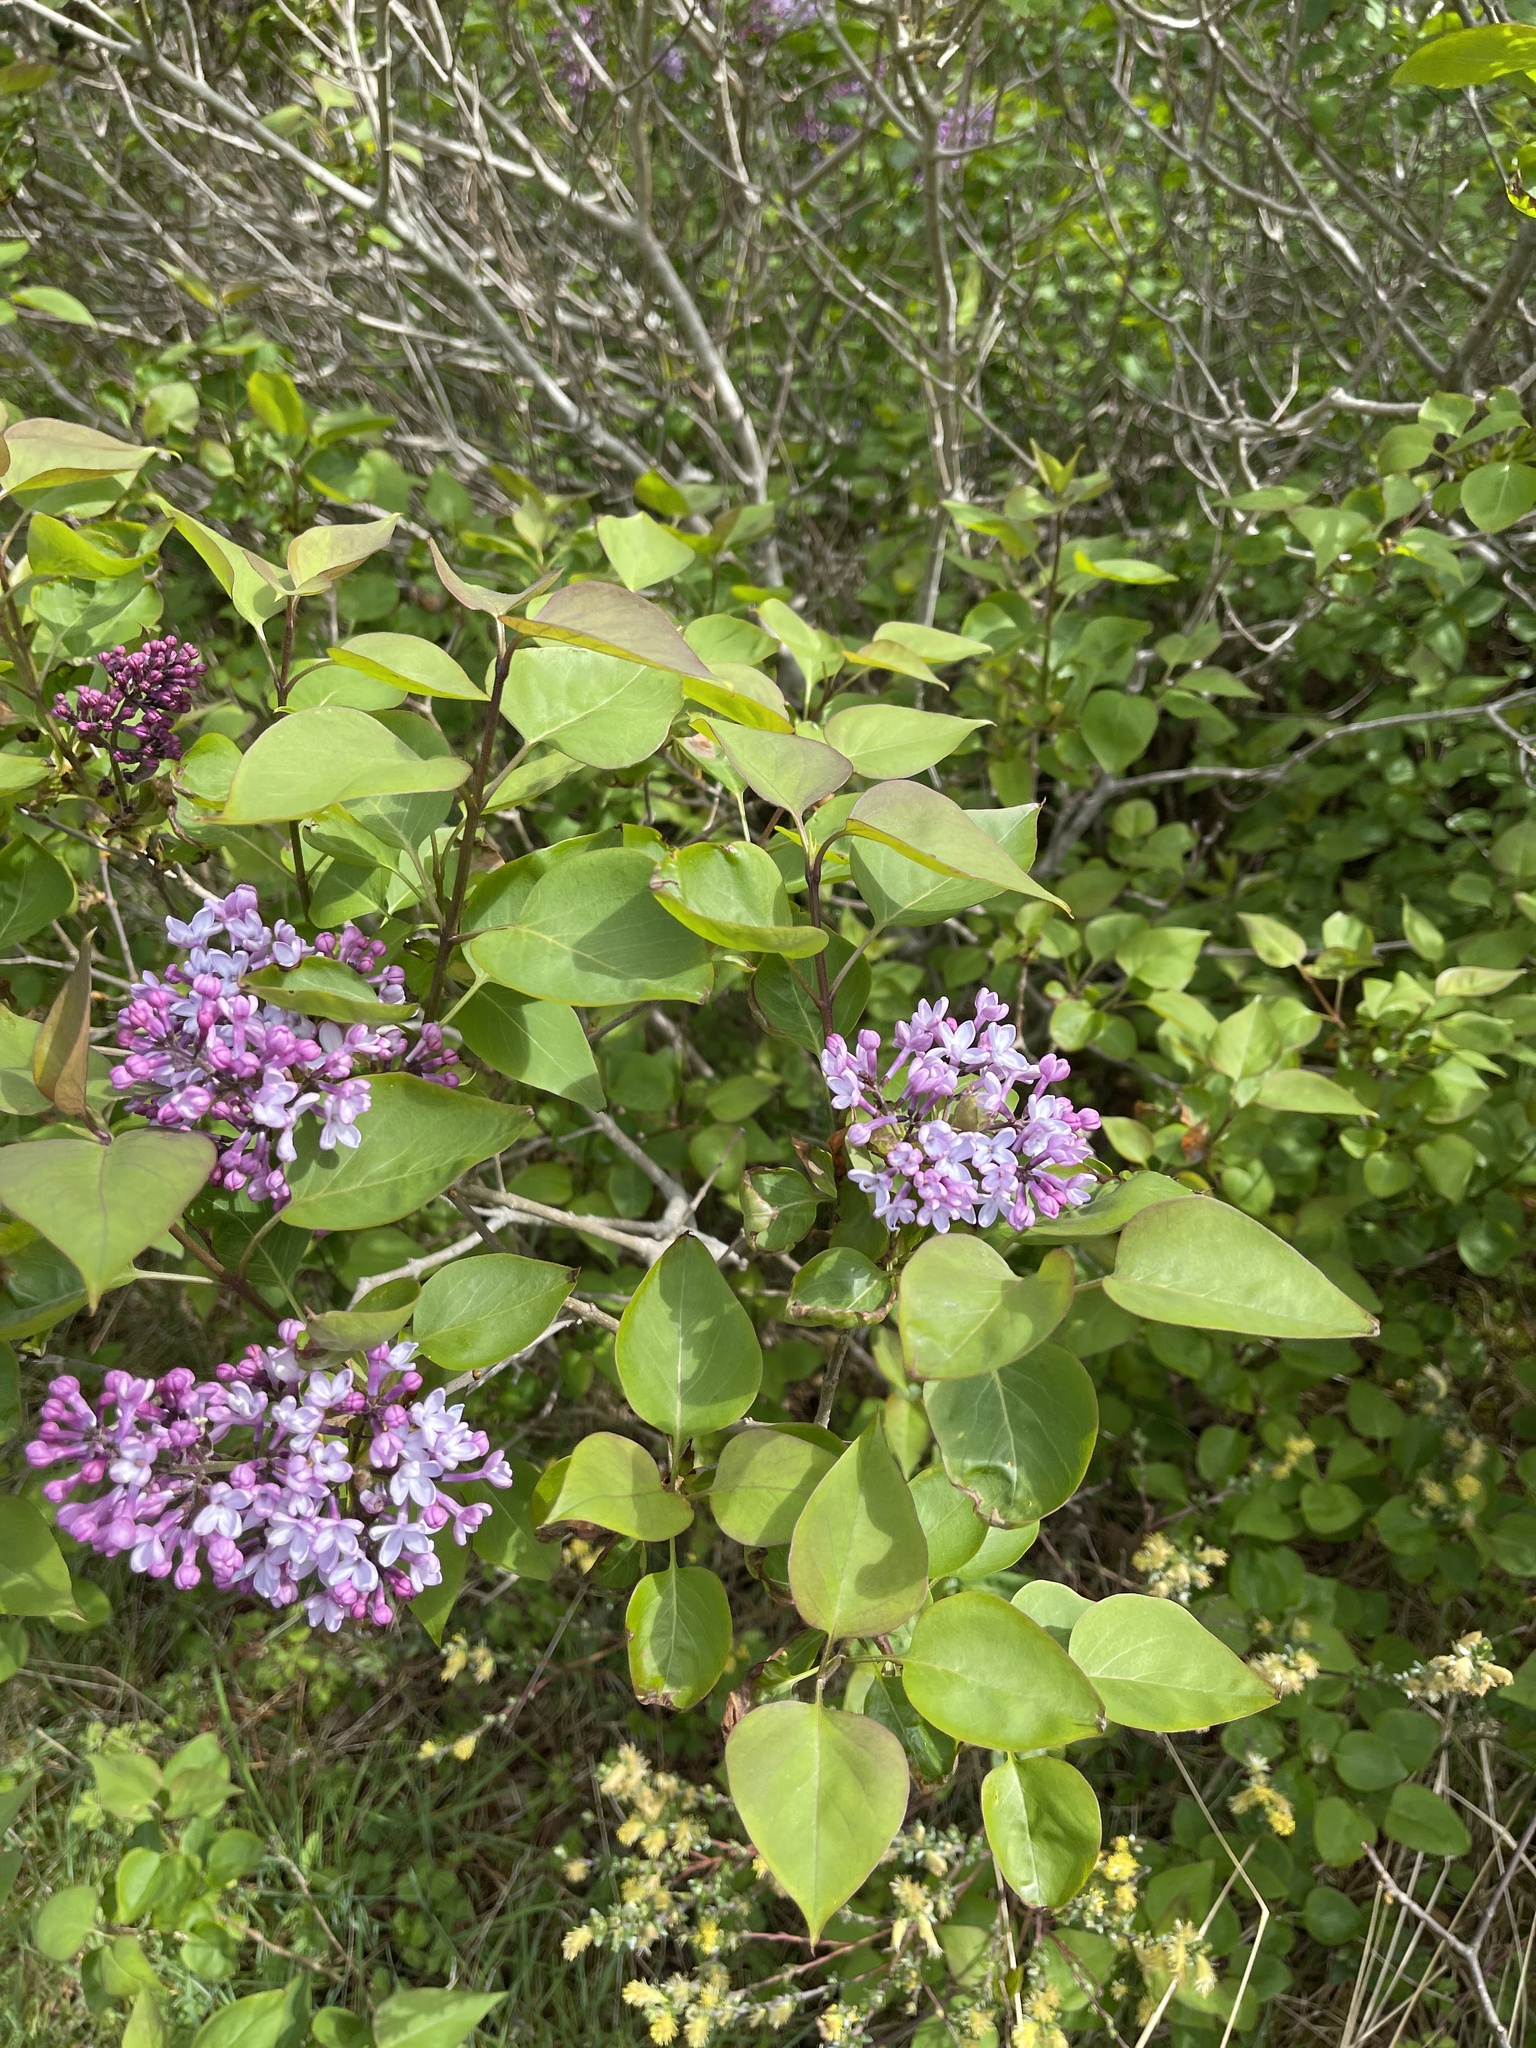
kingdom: Plantae
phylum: Tracheophyta
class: Magnoliopsida
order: Lamiales
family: Oleaceae
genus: Syringa
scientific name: Syringa vulgaris
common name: Common lilac
